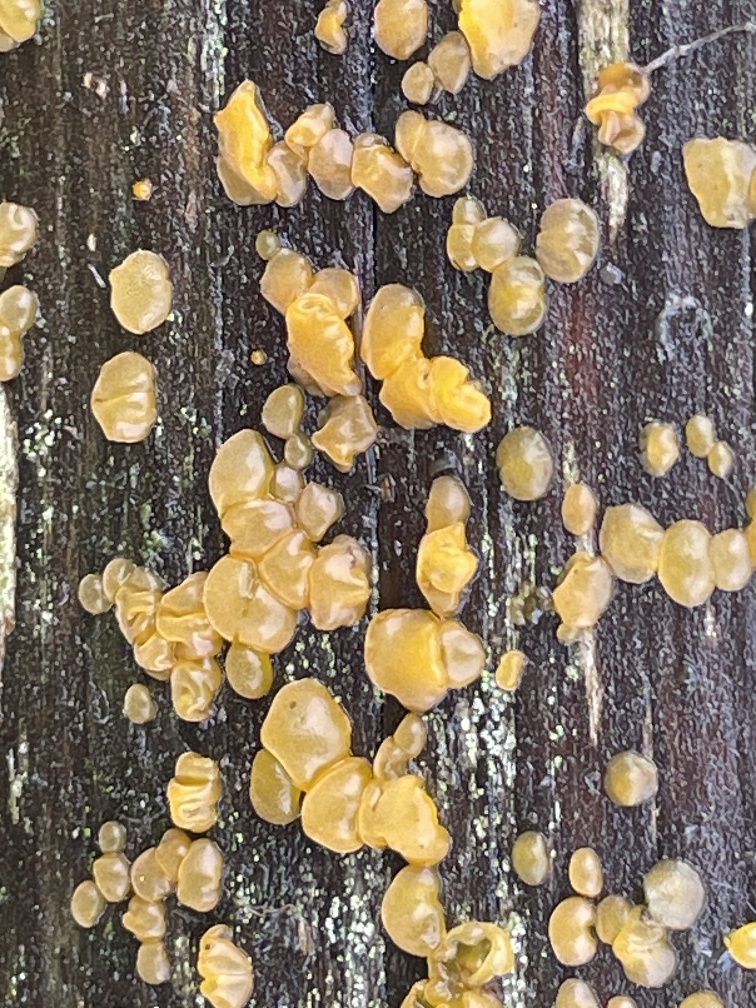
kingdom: Fungi
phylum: Basidiomycota
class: Dacrymycetes
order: Dacrymycetales
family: Dacrymycetaceae
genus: Dacrymyces
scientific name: Dacrymyces stillatus
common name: Common jelly spot
